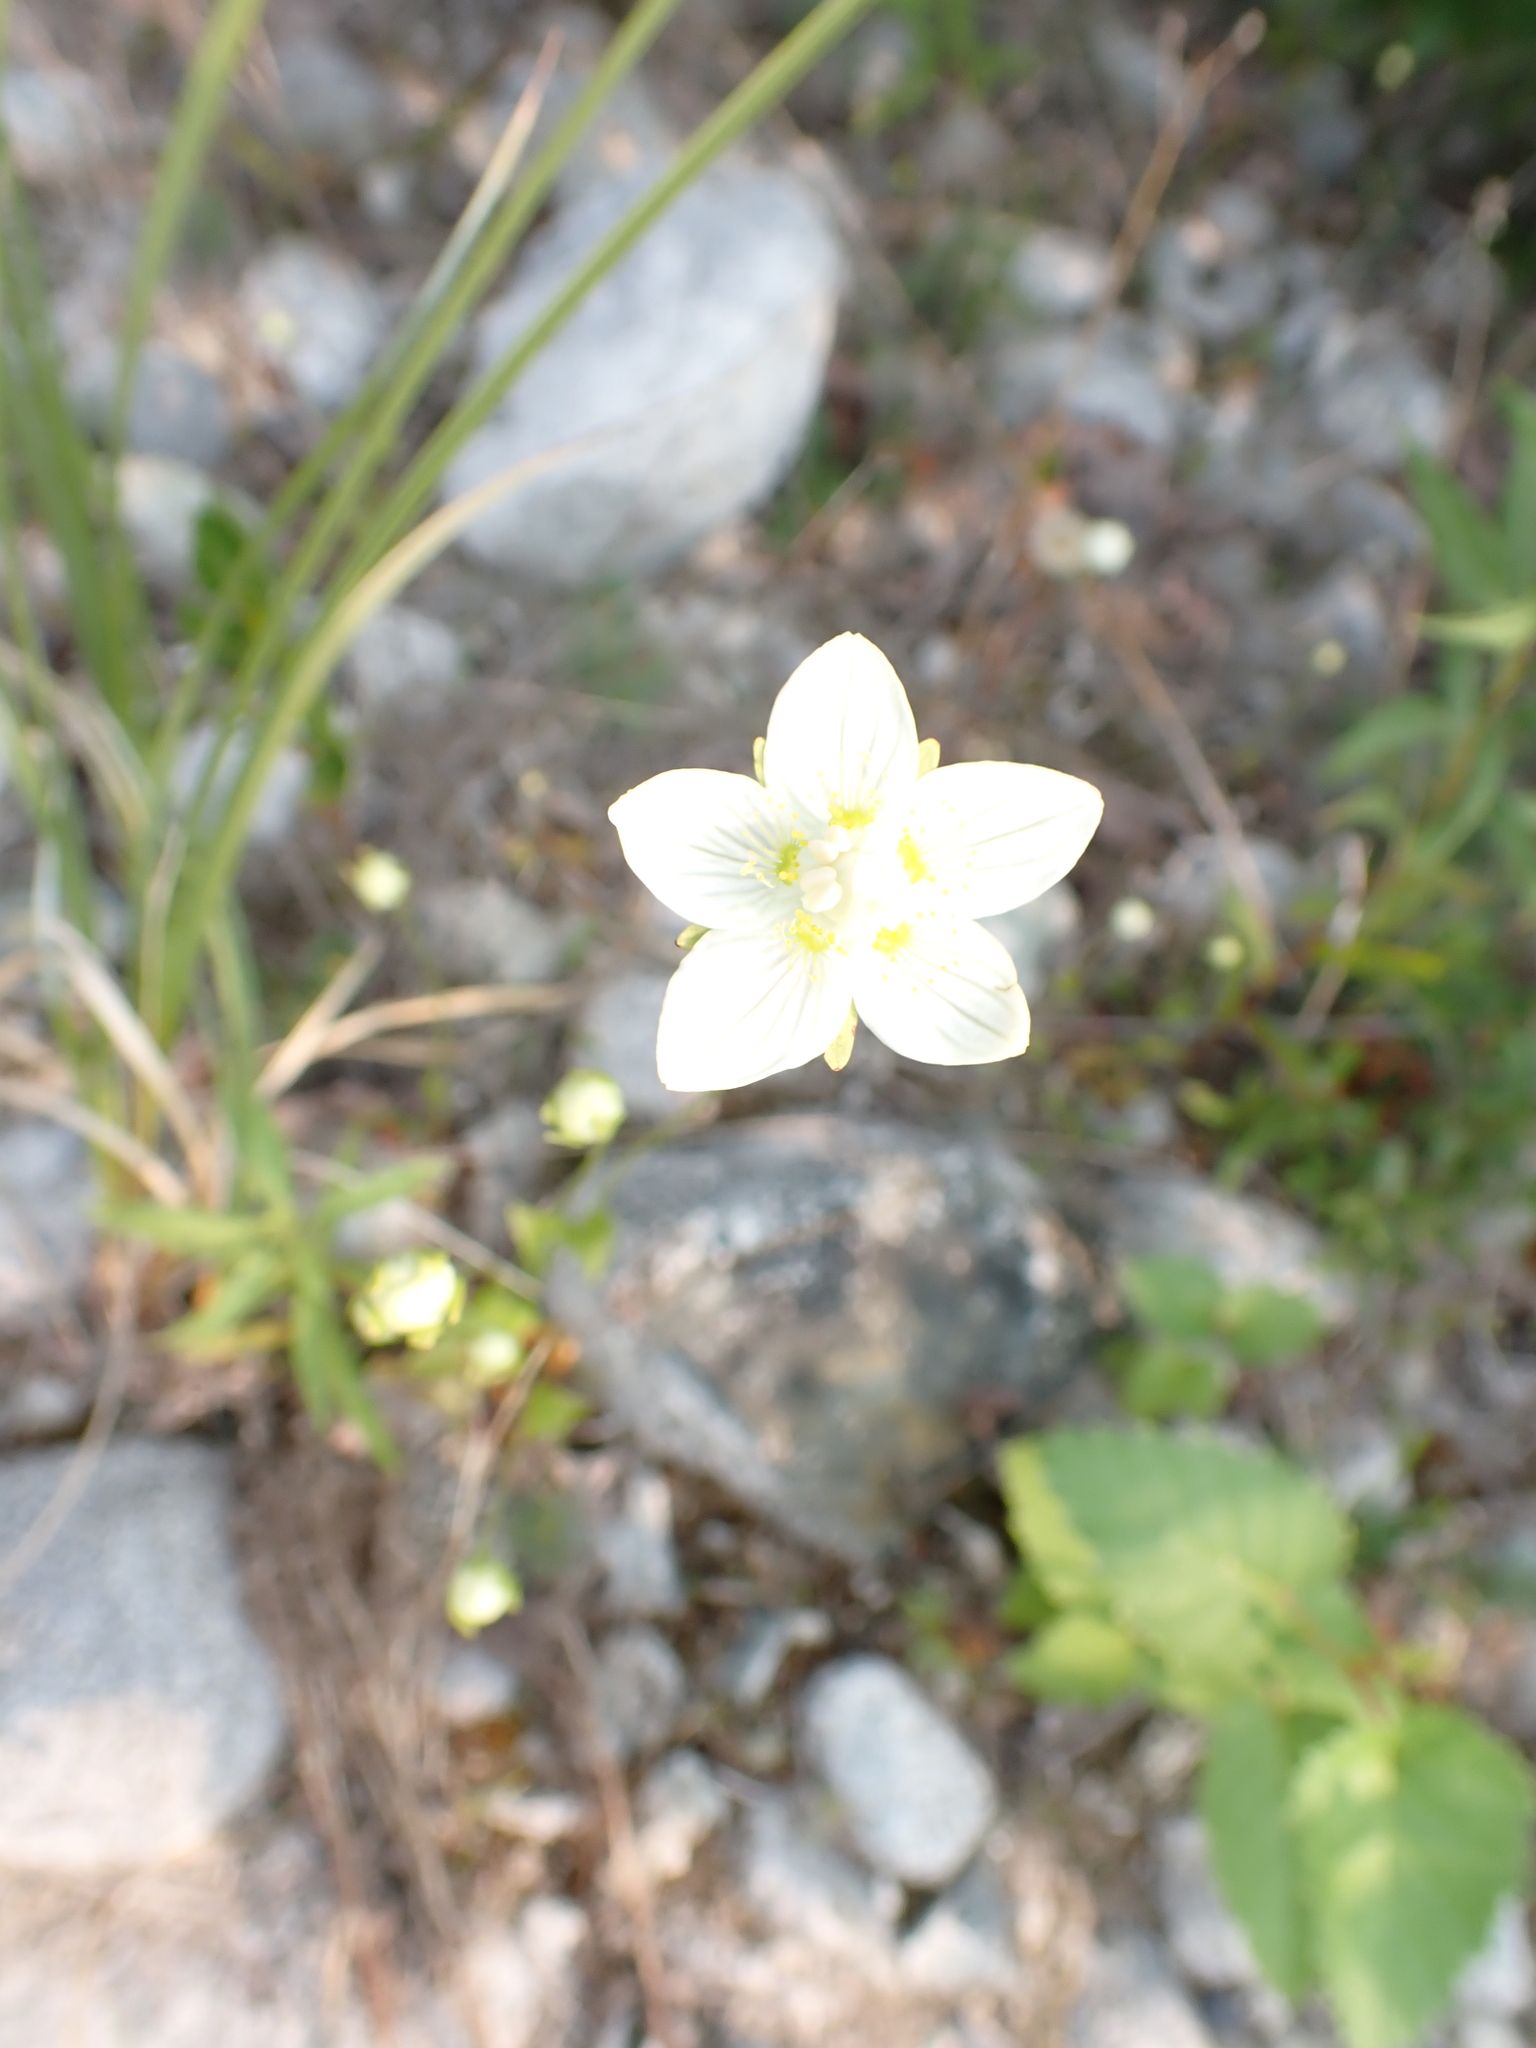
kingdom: Plantae
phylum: Tracheophyta
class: Magnoliopsida
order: Celastrales
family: Parnassiaceae
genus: Parnassia
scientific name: Parnassia palustris
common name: Grass-of-parnassus
